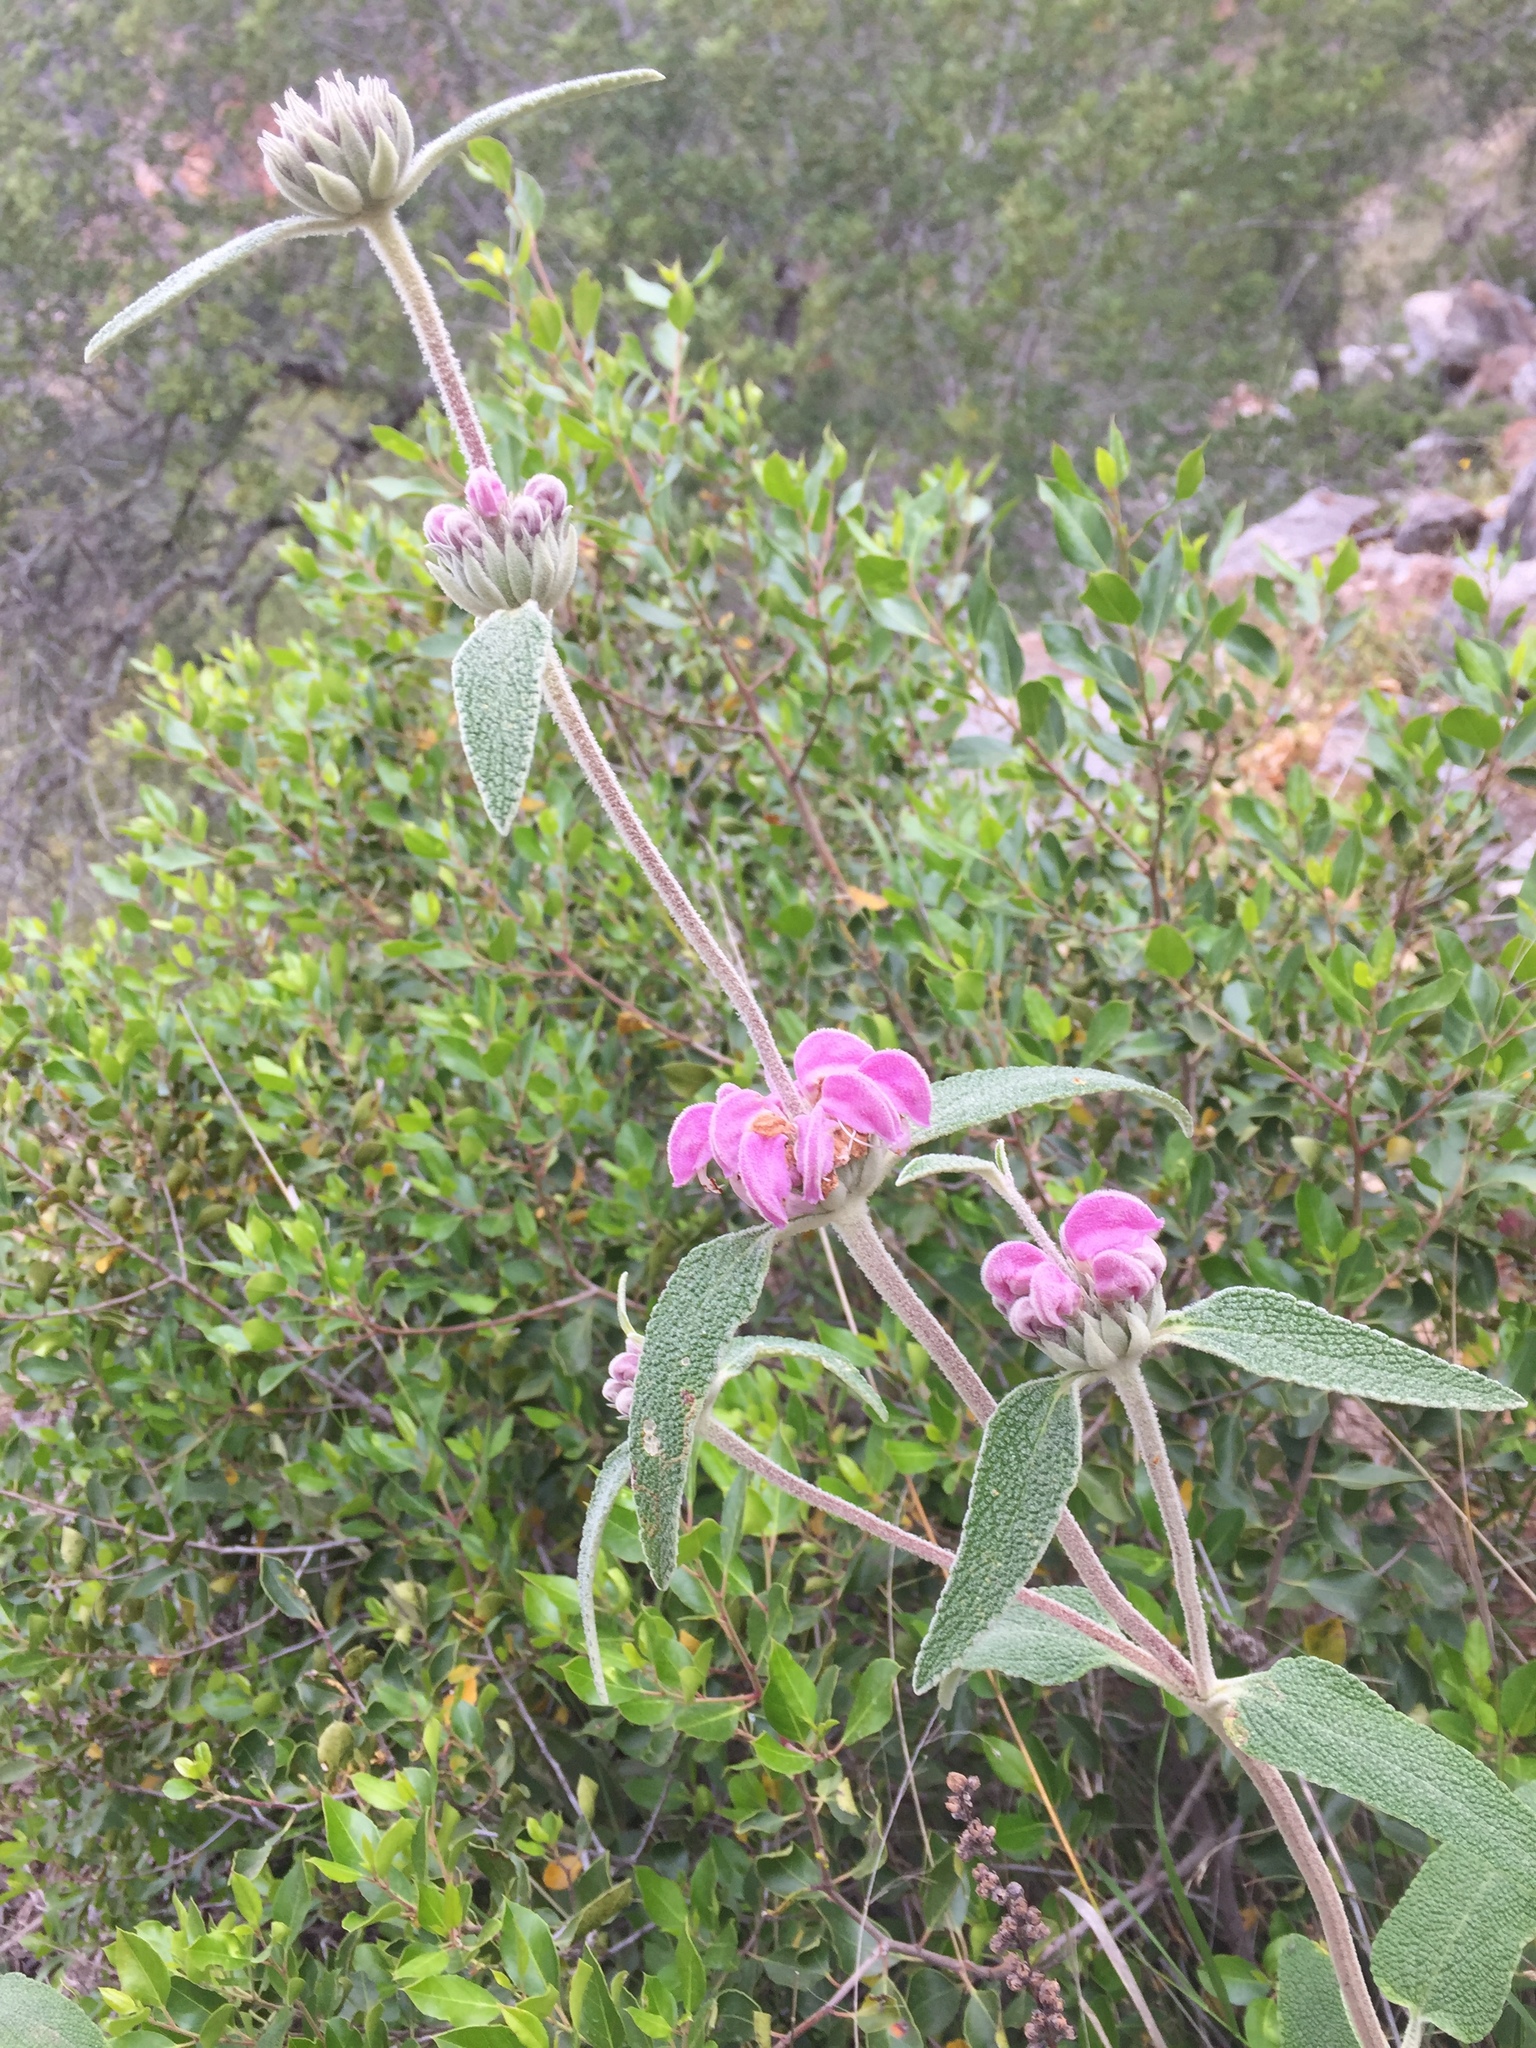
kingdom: Plantae
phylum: Tracheophyta
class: Magnoliopsida
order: Lamiales
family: Lamiaceae
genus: Phlomis
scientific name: Phlomis purpurea
